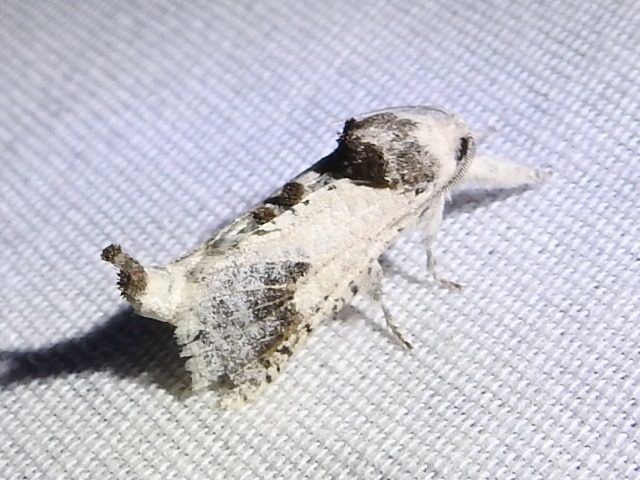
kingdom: Animalia
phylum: Arthropoda
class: Insecta
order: Lepidoptera
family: Cossidae
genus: Givira
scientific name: Givira theodori
